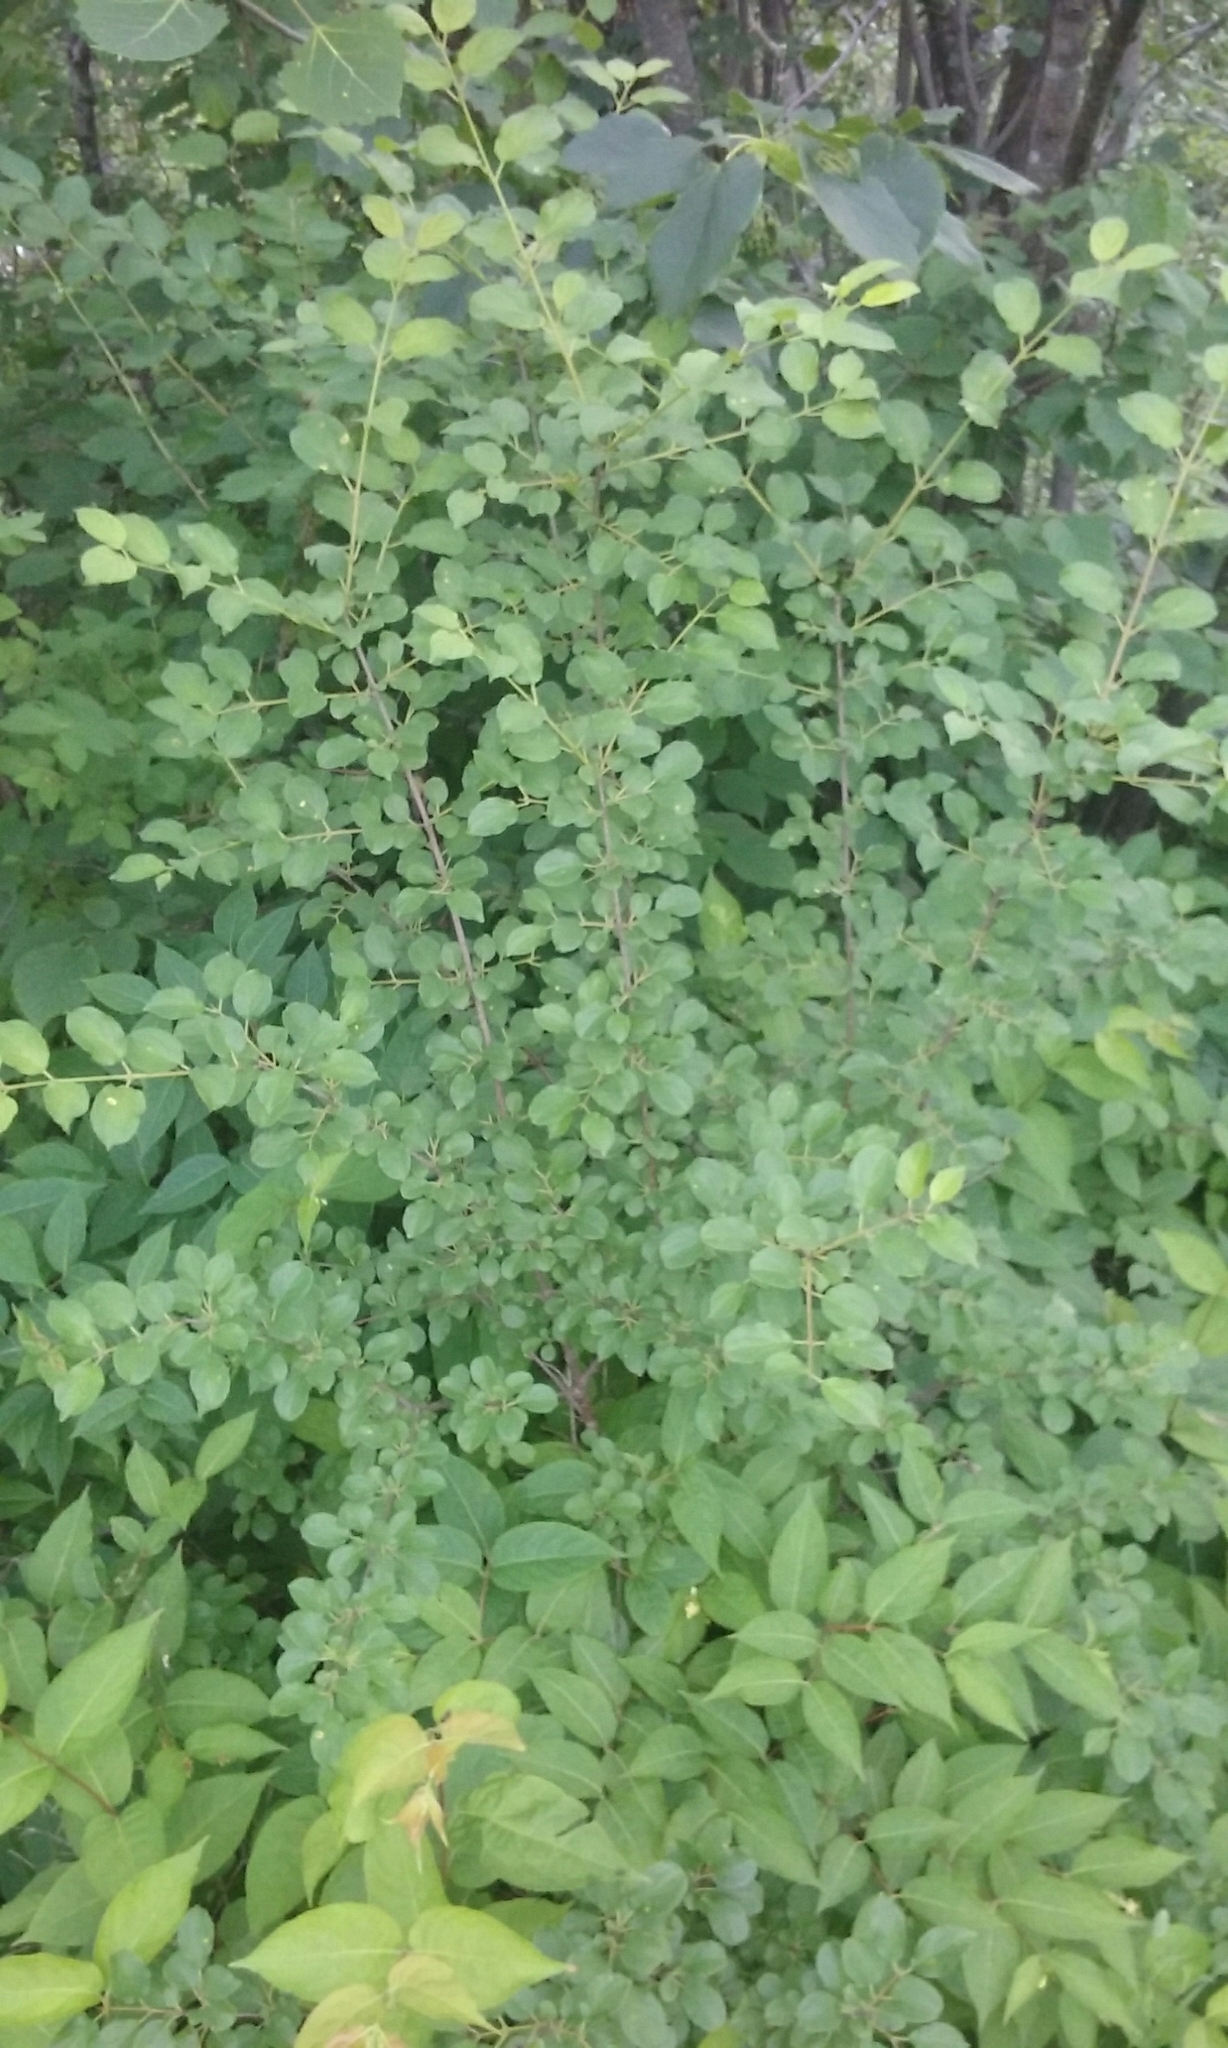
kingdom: Plantae
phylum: Tracheophyta
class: Magnoliopsida
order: Rosales
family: Rhamnaceae
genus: Rhamnus
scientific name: Rhamnus cathartica
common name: Common buckthorn
